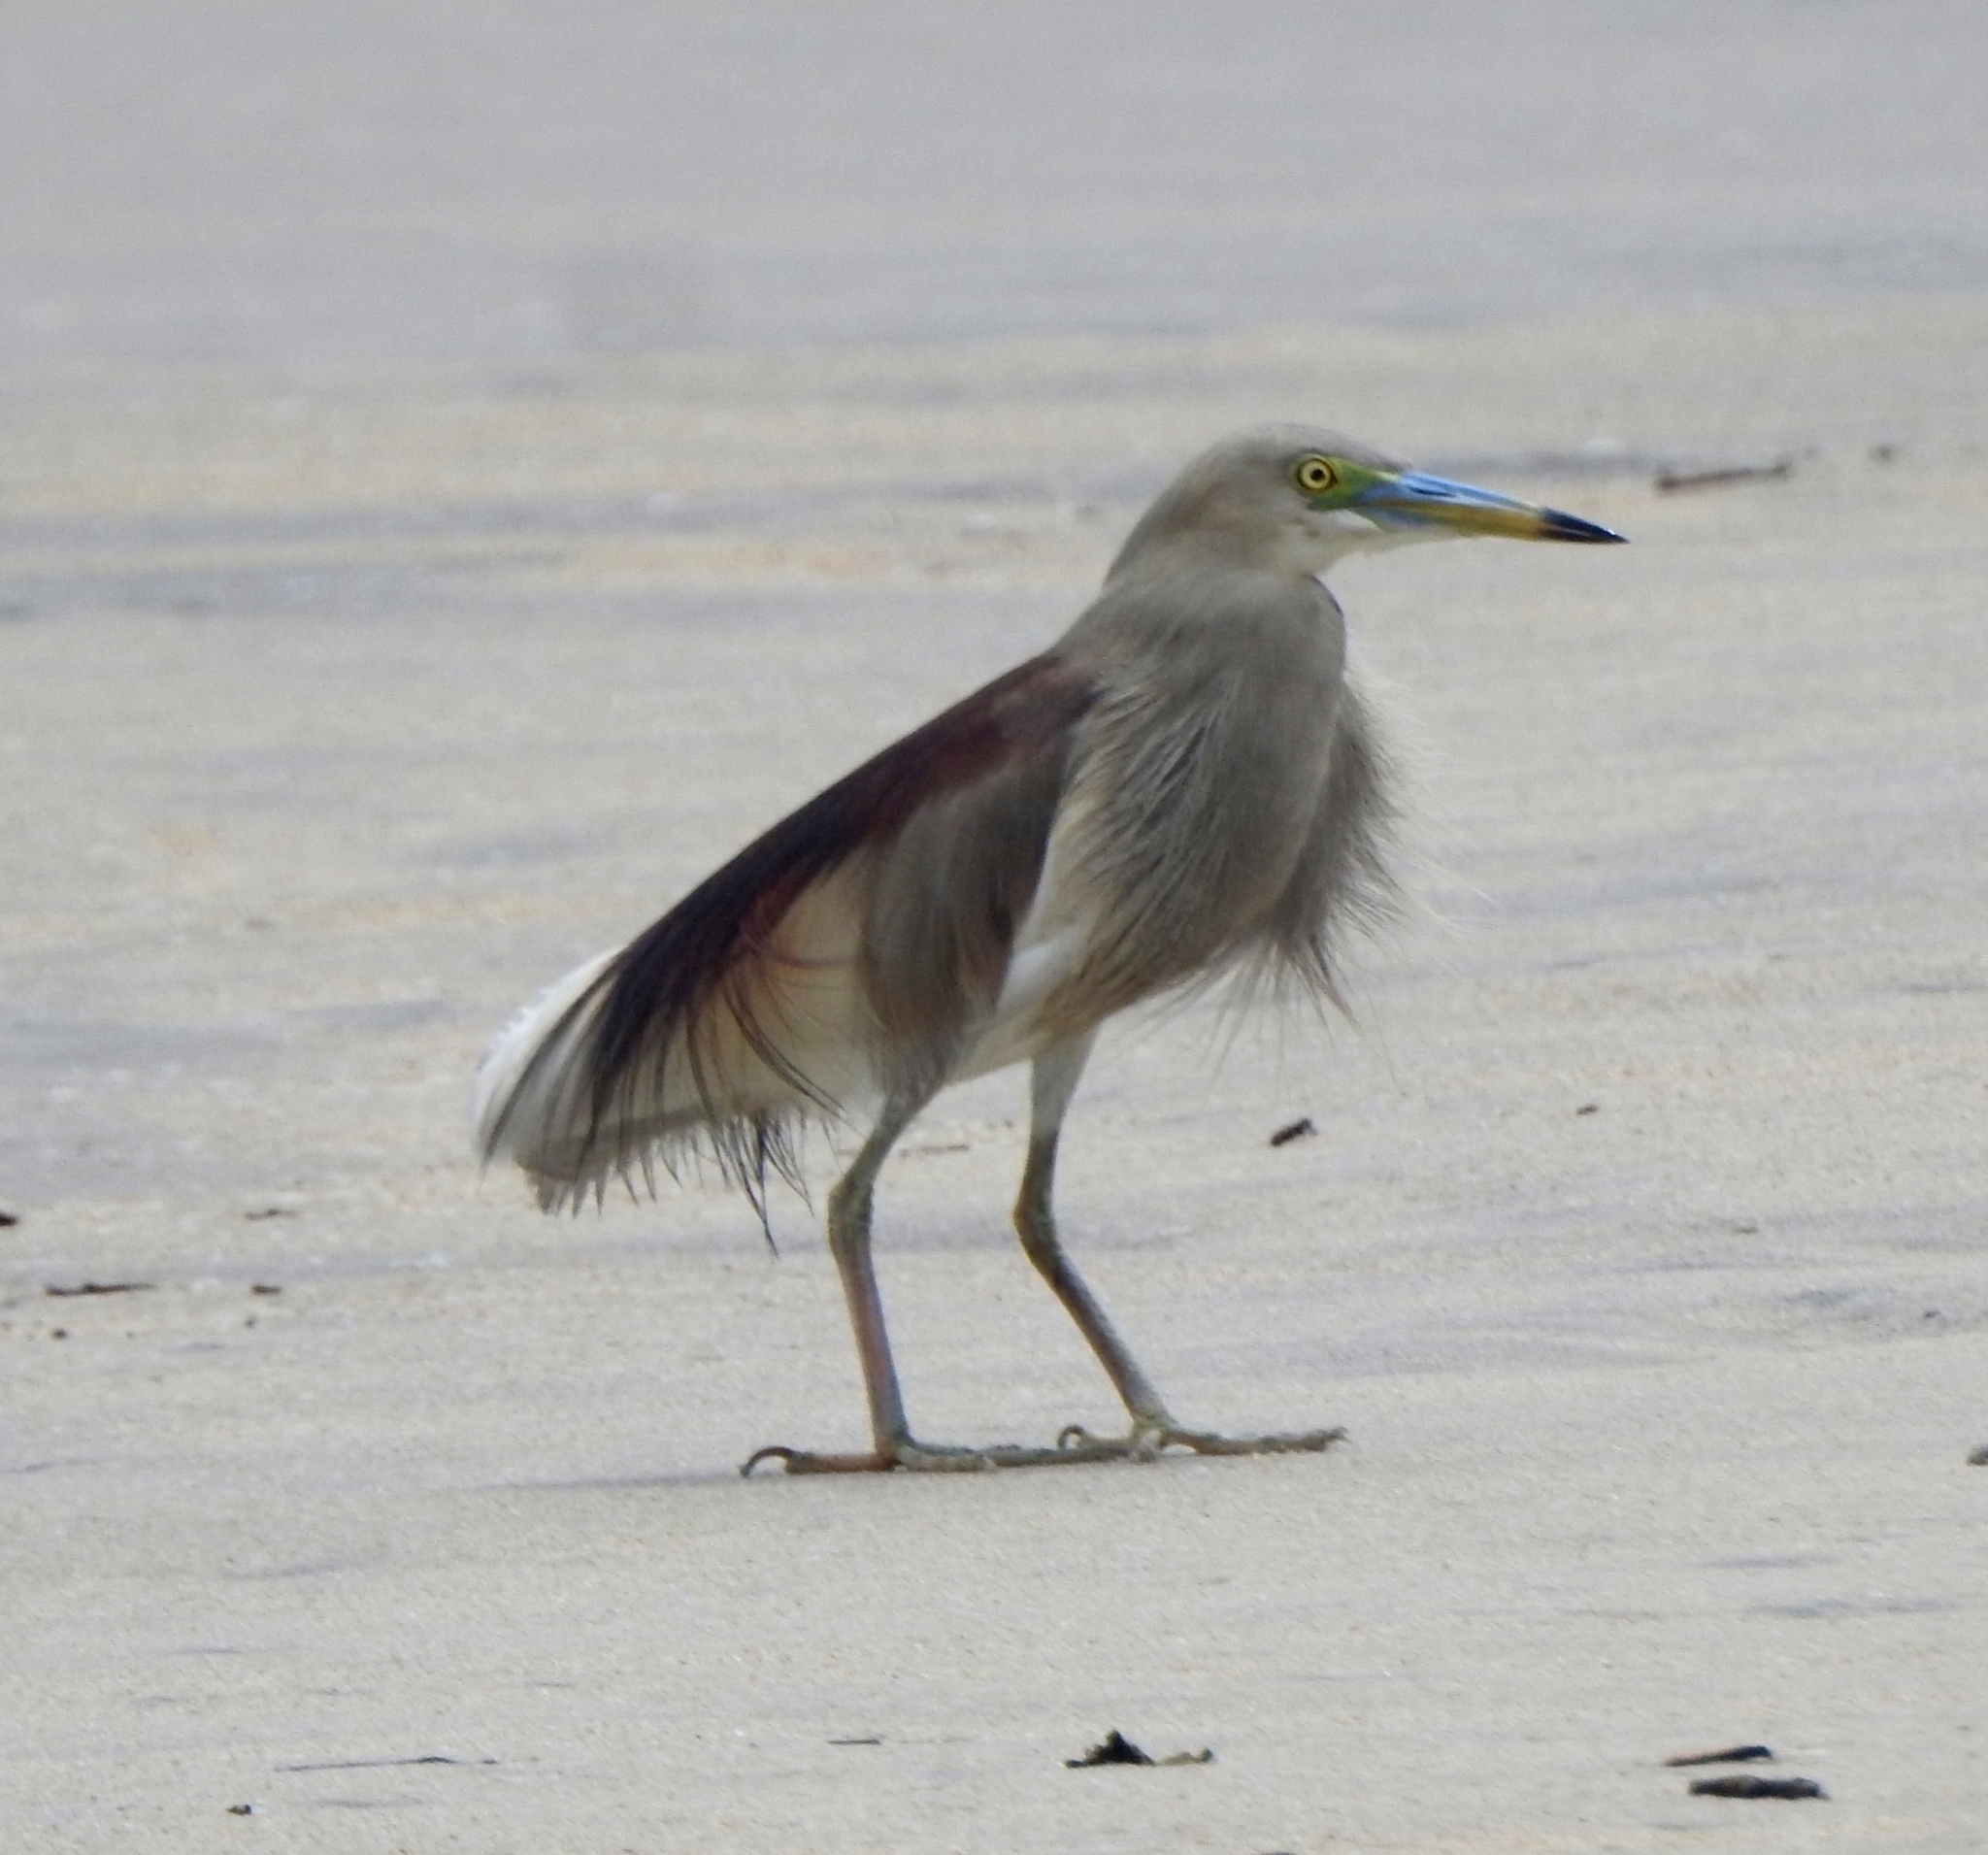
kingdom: Animalia
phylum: Chordata
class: Aves
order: Pelecaniformes
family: Ardeidae
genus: Ardeola
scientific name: Ardeola grayii
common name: Indian pond heron
